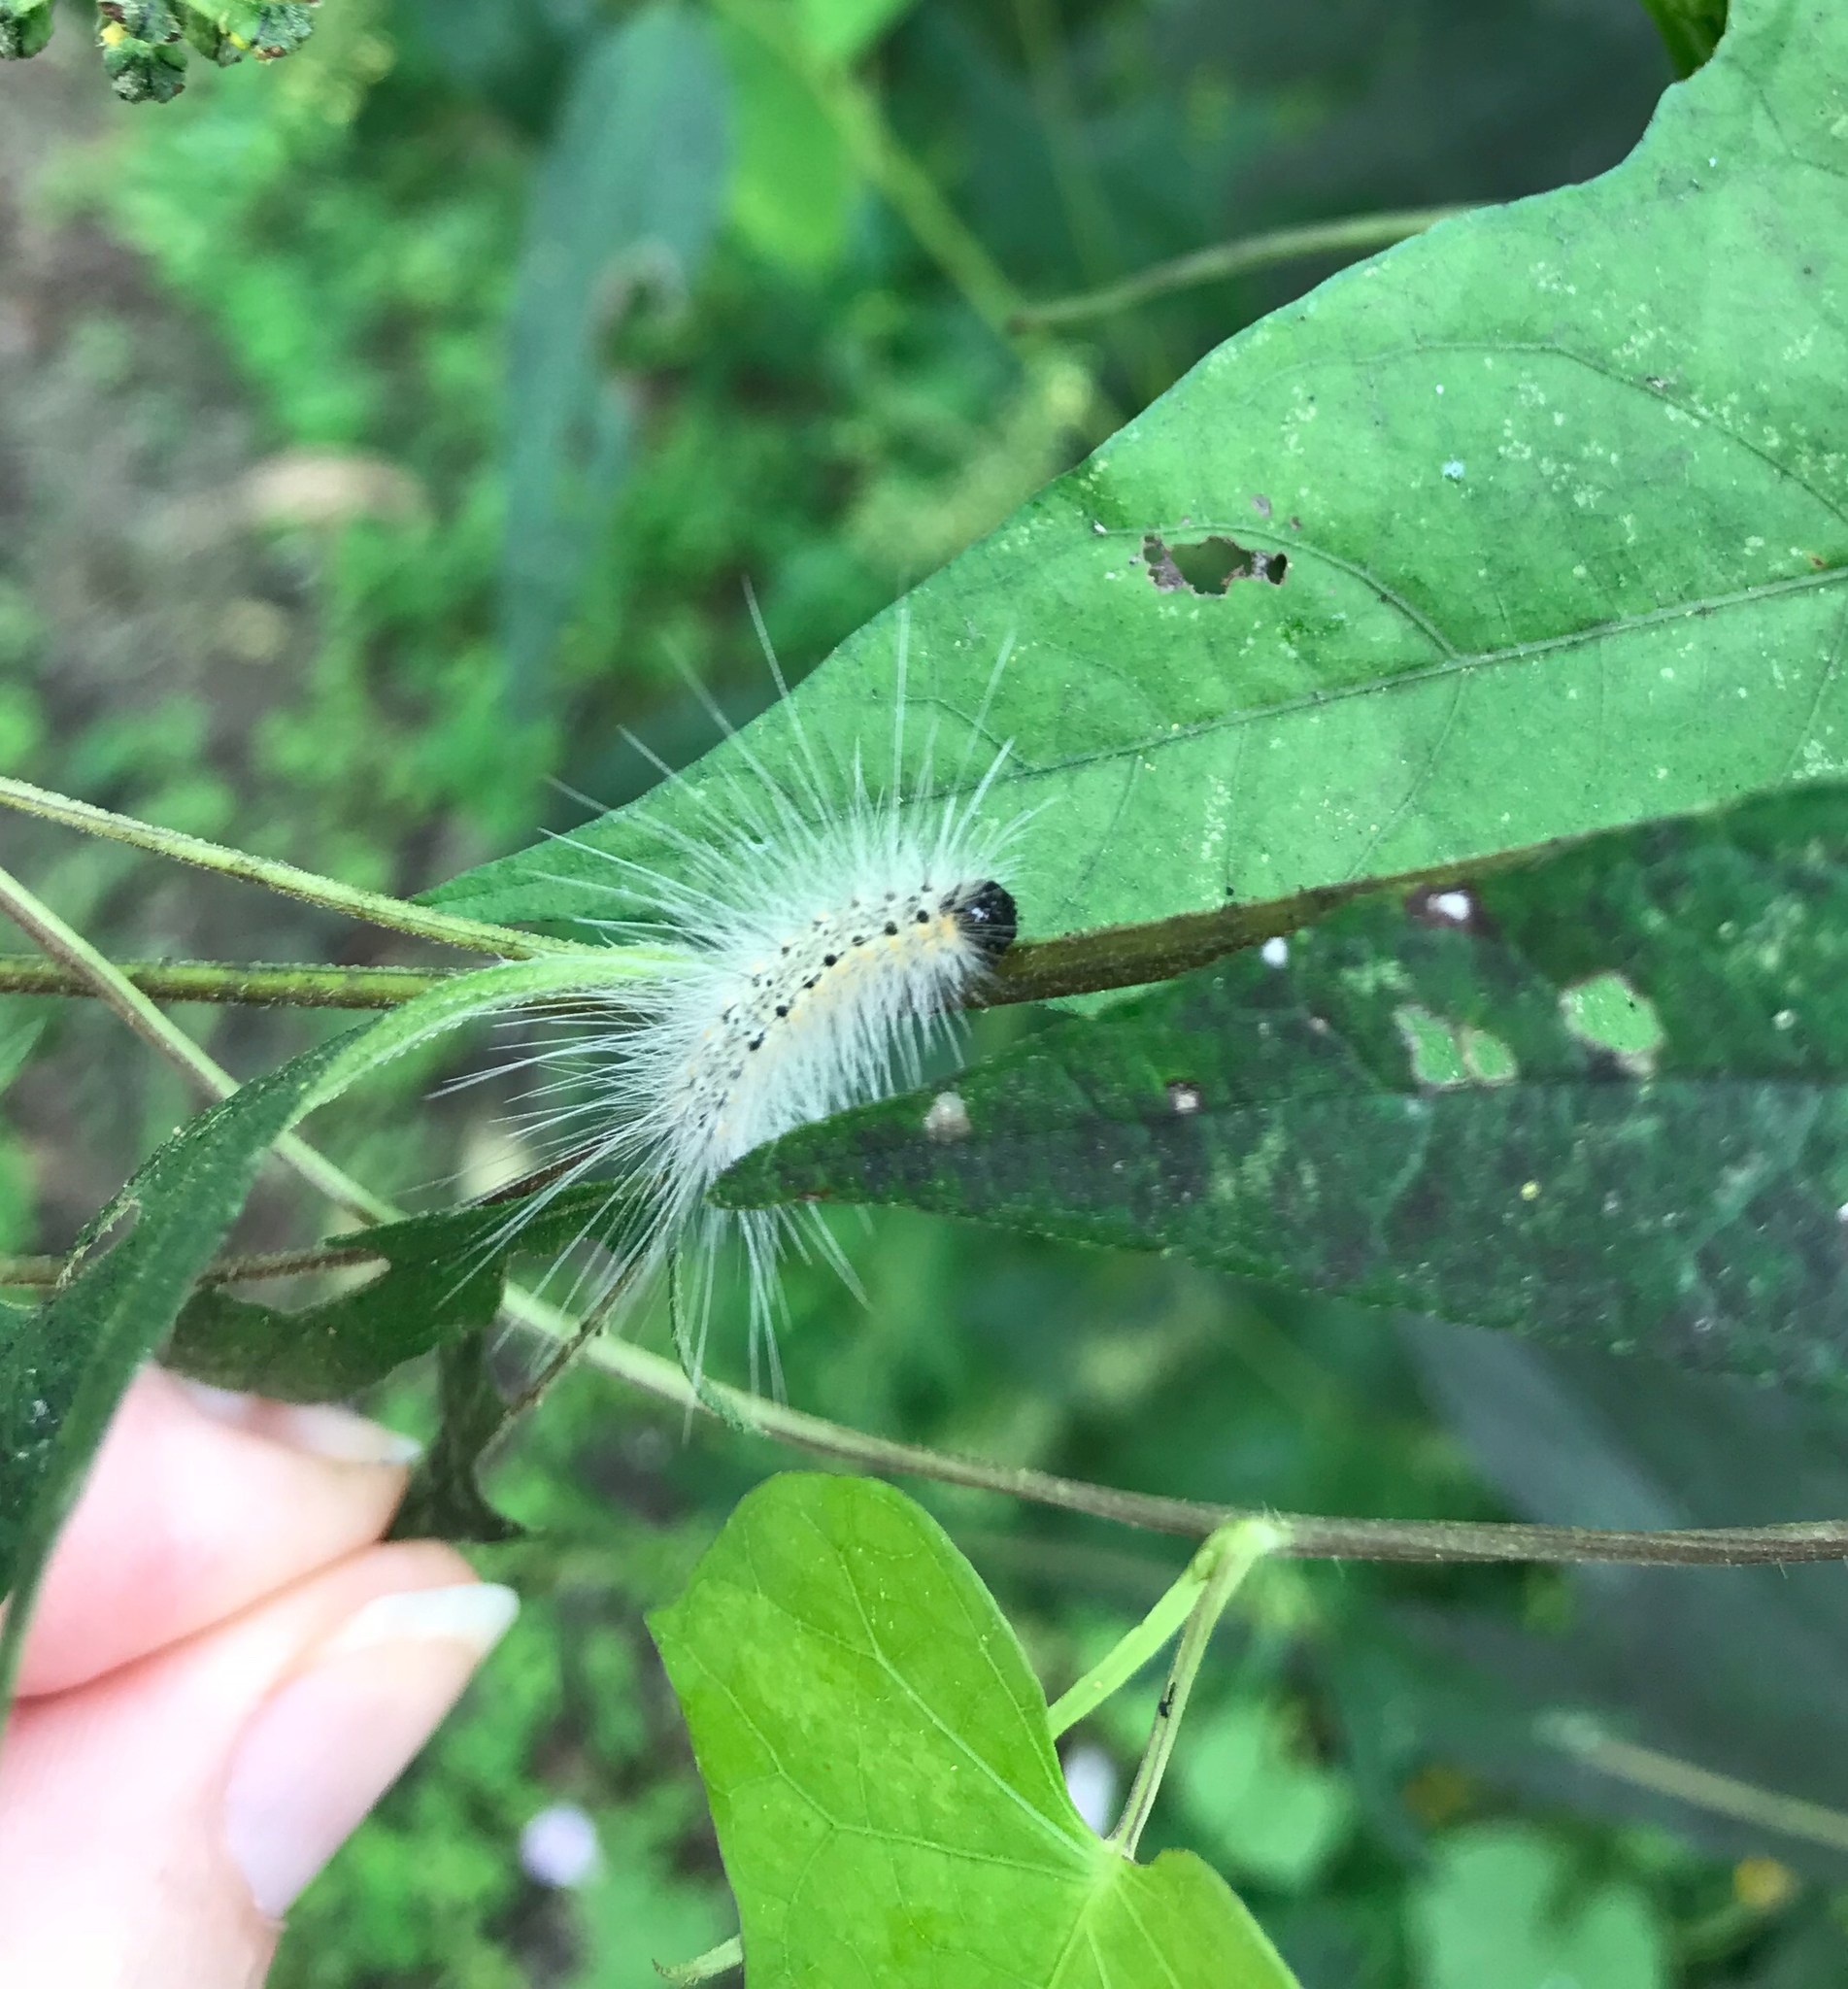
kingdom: Animalia
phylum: Arthropoda
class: Insecta
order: Lepidoptera
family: Erebidae
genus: Hyphantria
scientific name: Hyphantria cunea
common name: American white moth
